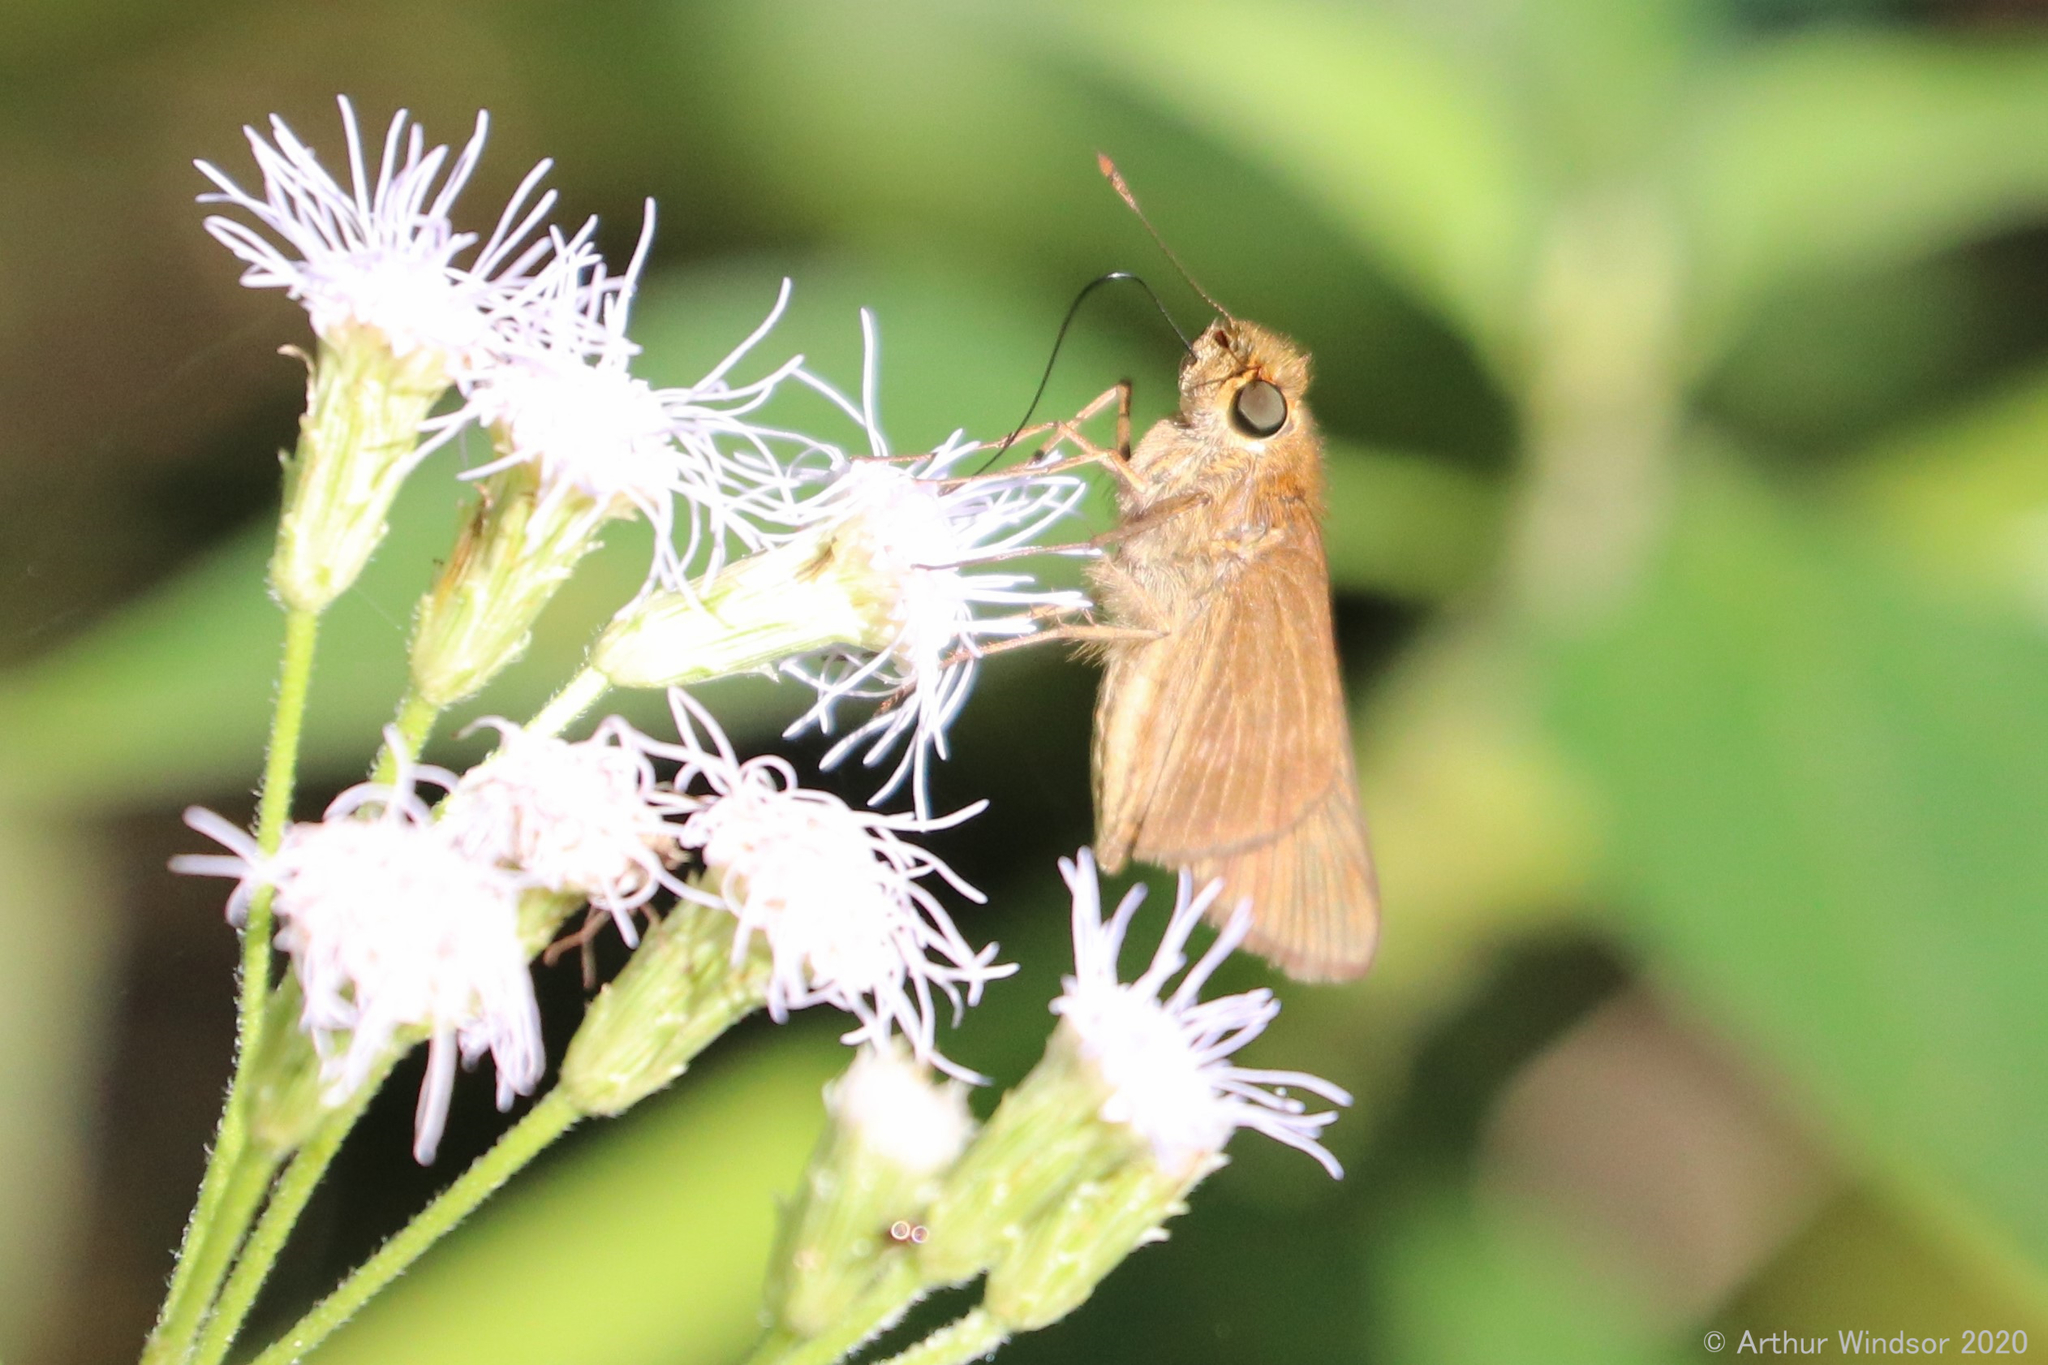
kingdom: Animalia
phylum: Arthropoda
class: Insecta
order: Lepidoptera
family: Hesperiidae
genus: Panoquina
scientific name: Panoquina ocola
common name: Ocola skipper
